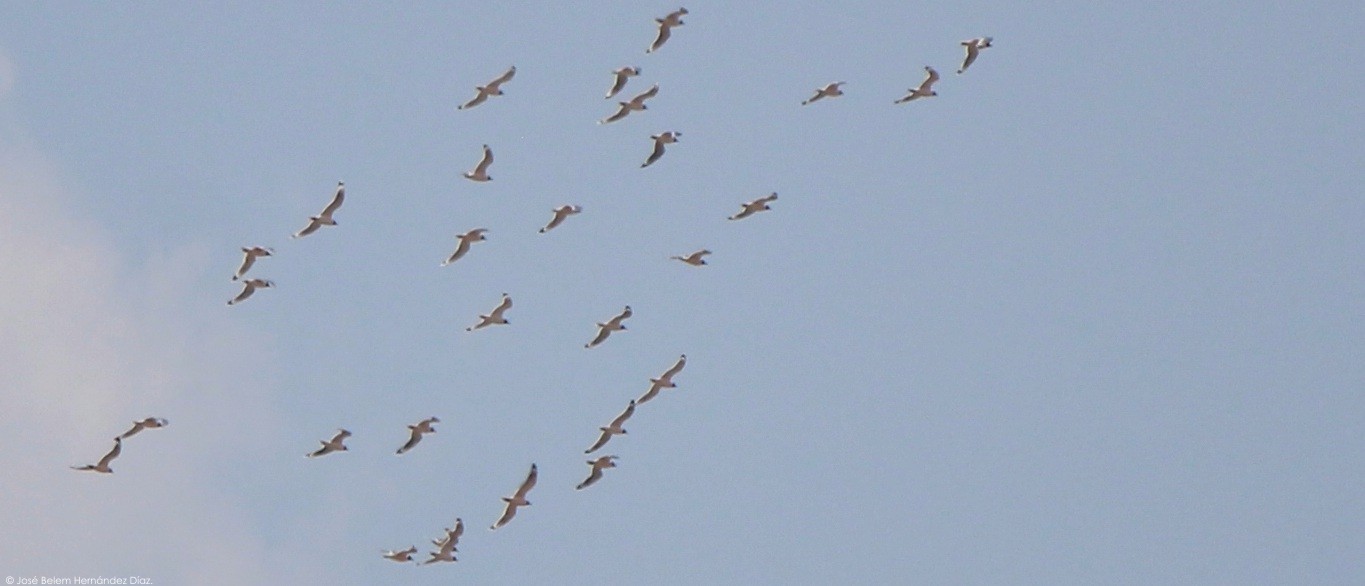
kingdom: Animalia
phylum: Chordata
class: Aves
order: Charadriiformes
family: Laridae
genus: Leucophaeus
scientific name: Leucophaeus pipixcan
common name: Franklin's gull
